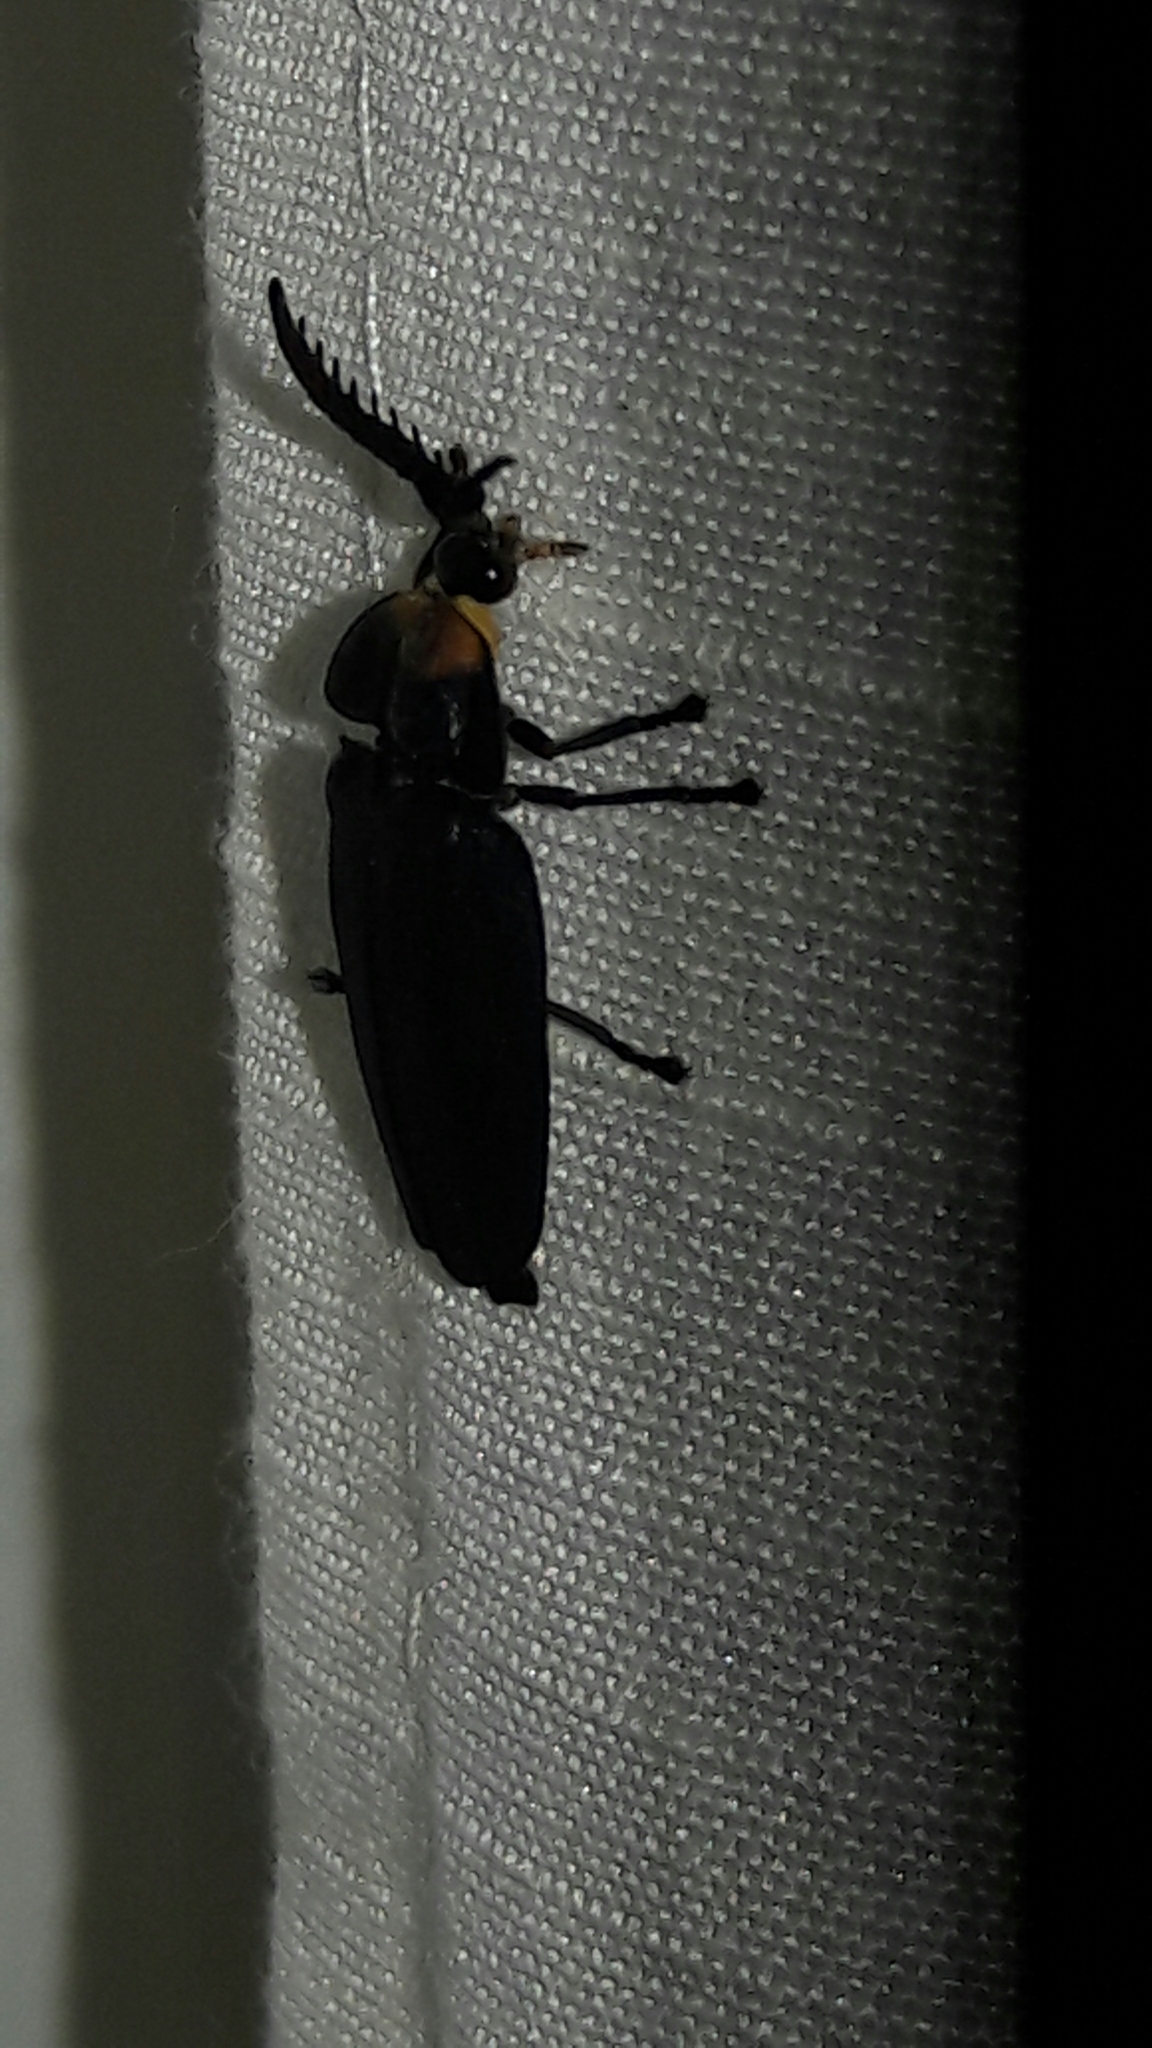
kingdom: Animalia
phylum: Arthropoda
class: Insecta
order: Coleoptera
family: Lampyridae
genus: Lucio
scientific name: Lucio blattinum
